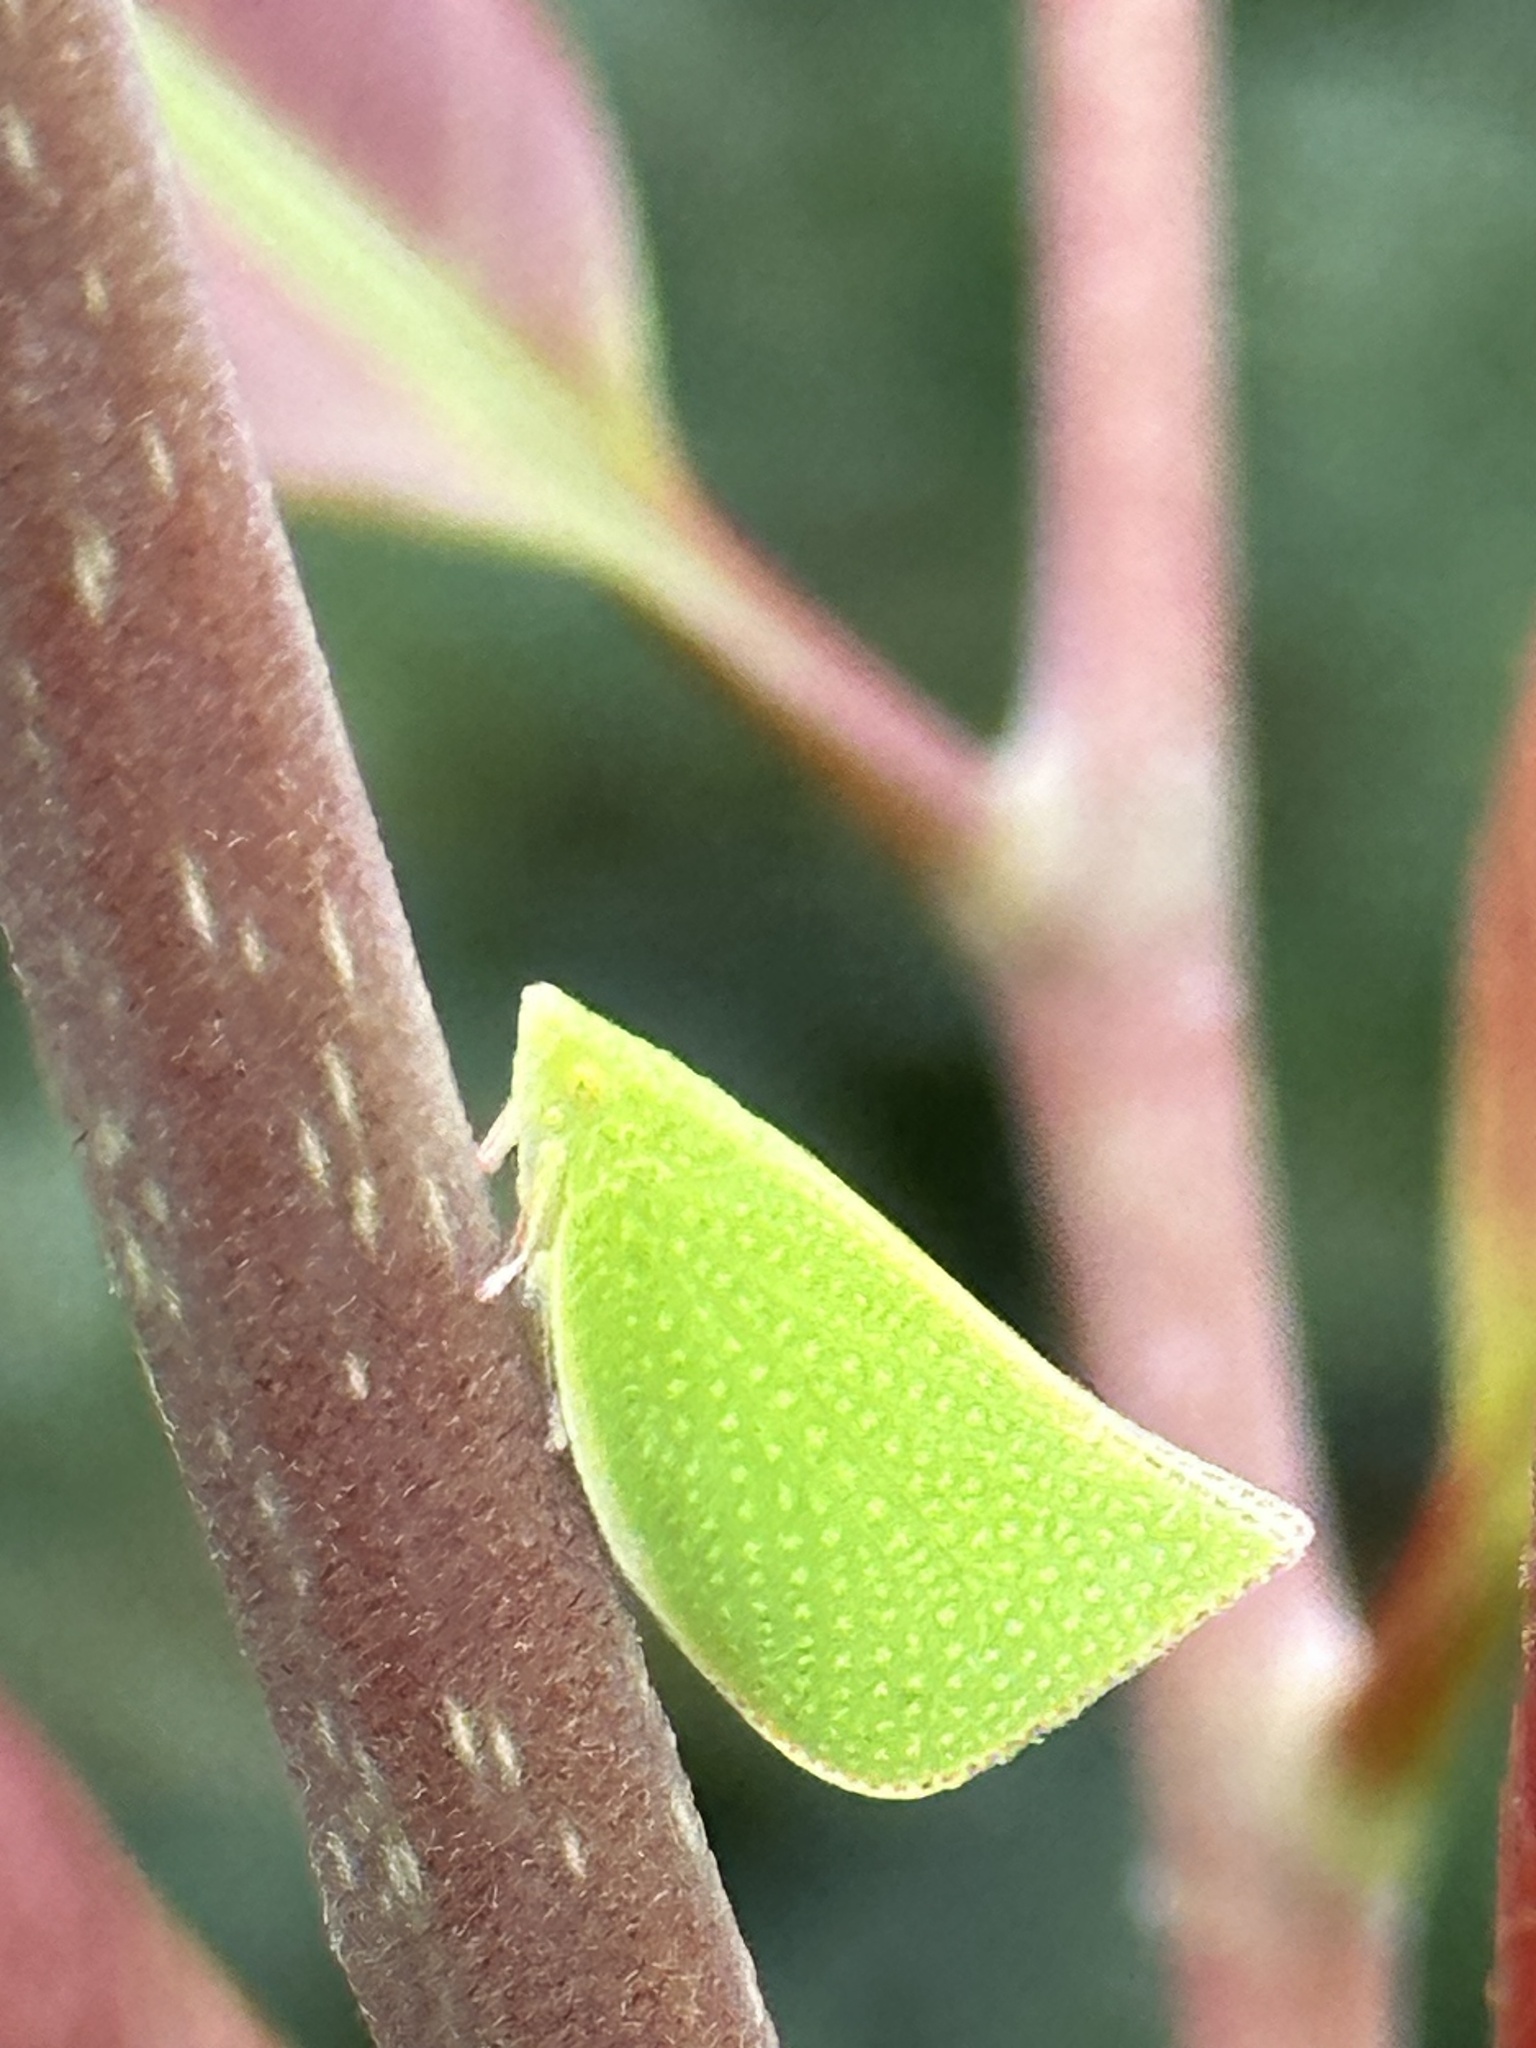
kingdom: Animalia
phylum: Arthropoda
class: Insecta
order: Hemiptera
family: Flatidae
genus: Siphanta
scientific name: Siphanta acuta
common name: Torpedo bug
